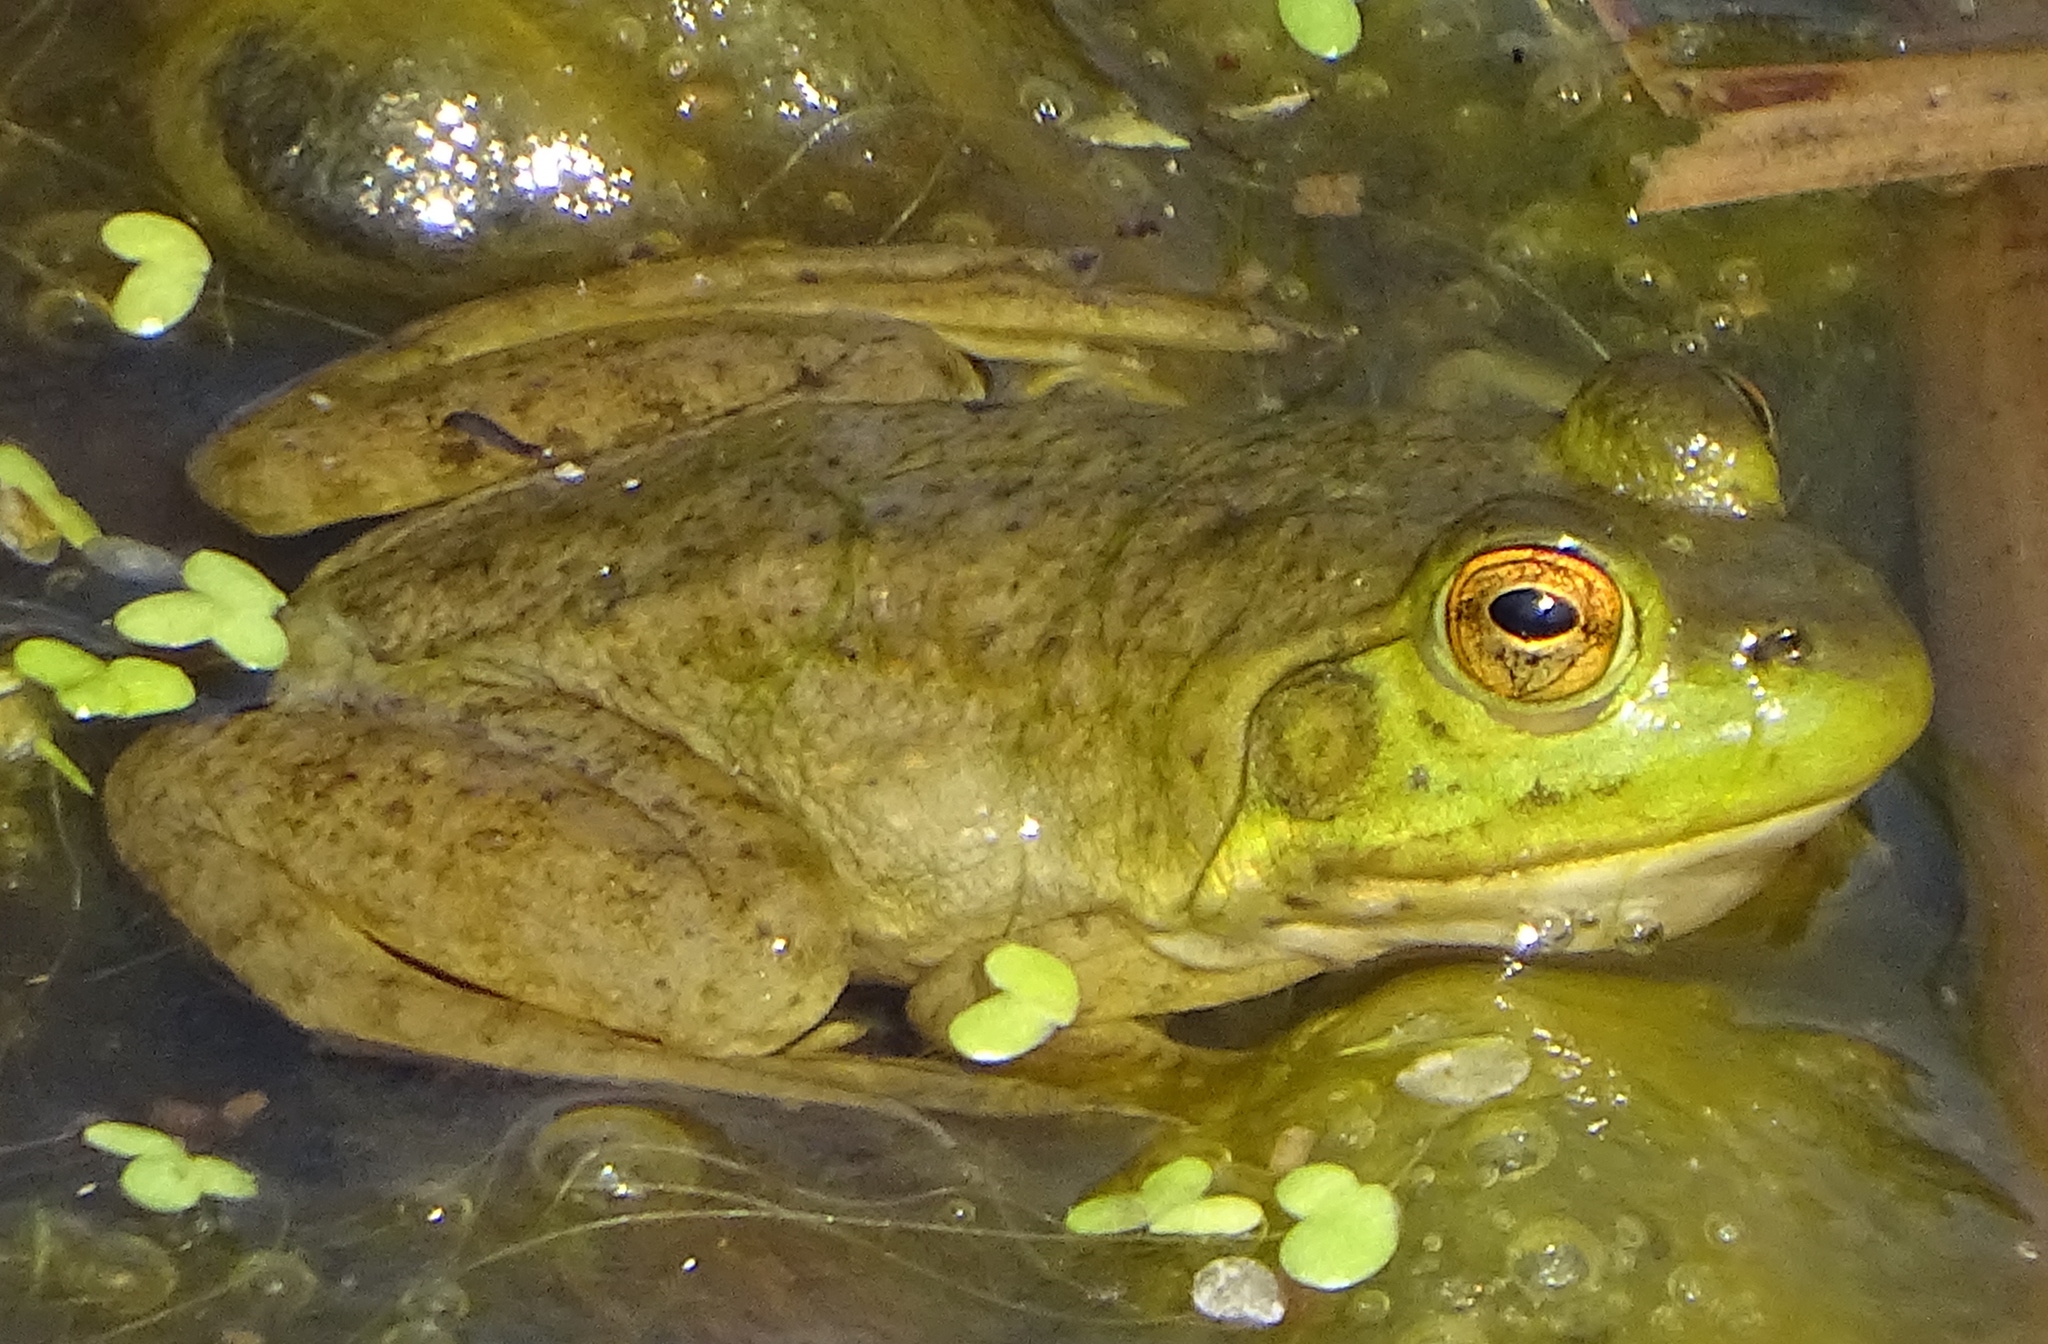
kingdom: Animalia
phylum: Chordata
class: Amphibia
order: Anura
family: Ranidae
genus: Lithobates
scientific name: Lithobates catesbeianus
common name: American bullfrog
